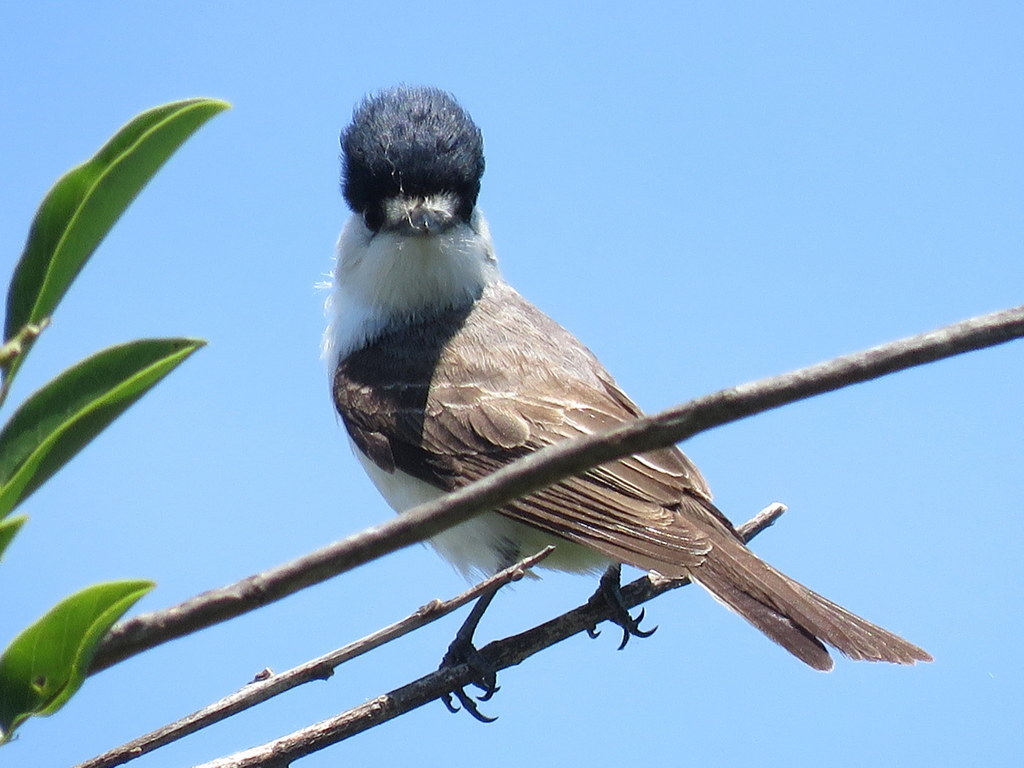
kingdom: Animalia
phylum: Chordata
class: Aves
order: Passeriformes
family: Cotingidae
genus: Xenopsaris
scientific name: Xenopsaris albinucha
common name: White-naped xenopsaris
